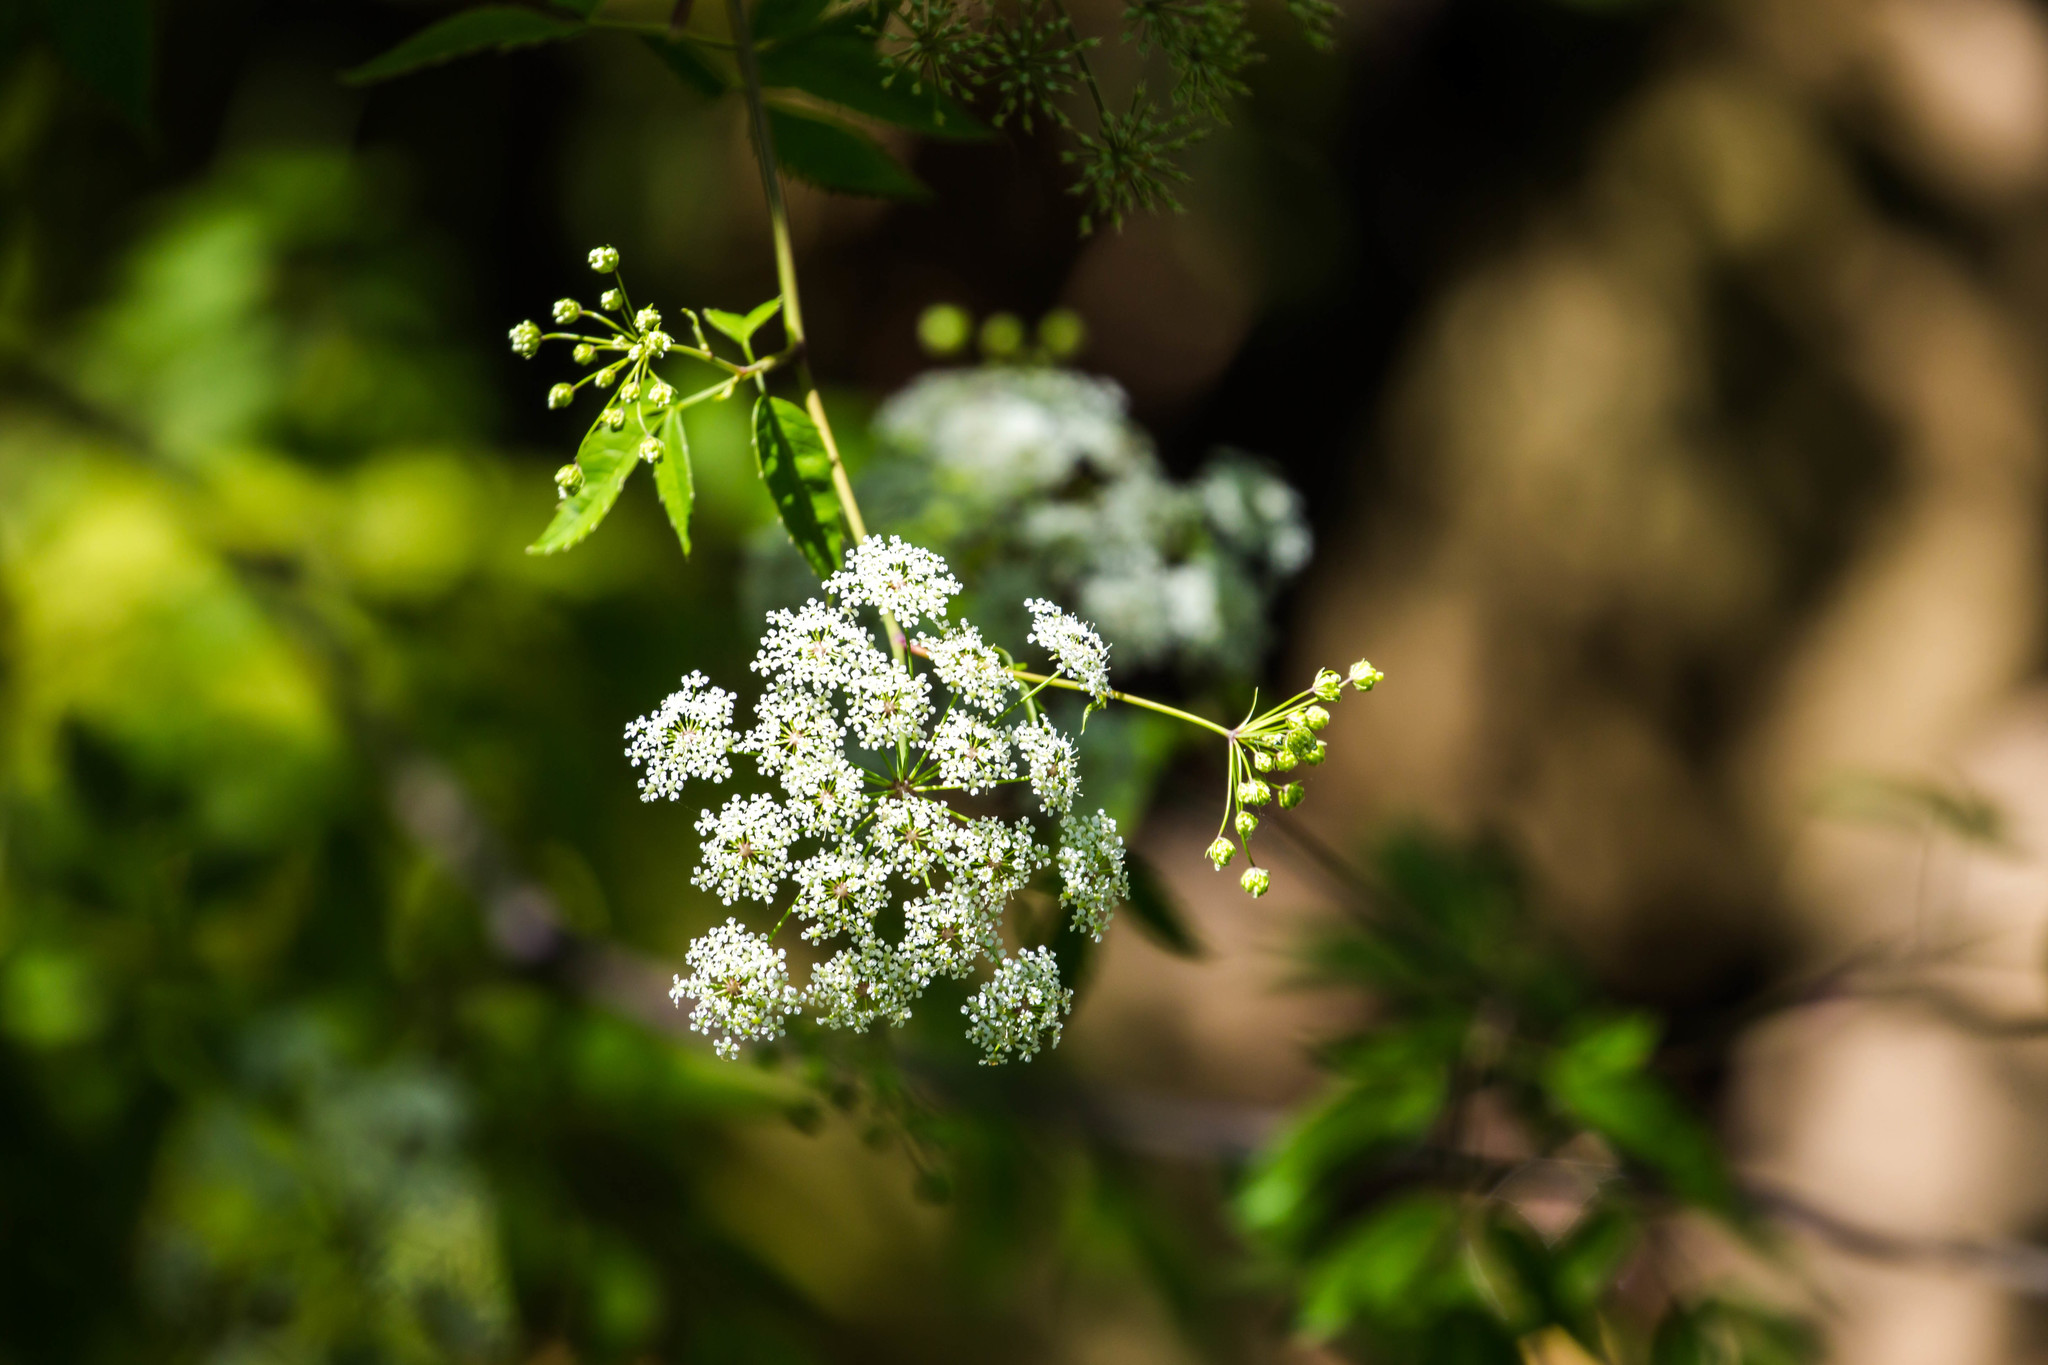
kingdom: Plantae
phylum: Tracheophyta
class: Magnoliopsida
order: Apiales
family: Apiaceae
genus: Cicuta
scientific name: Cicuta maculata
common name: Spotted cowbane
